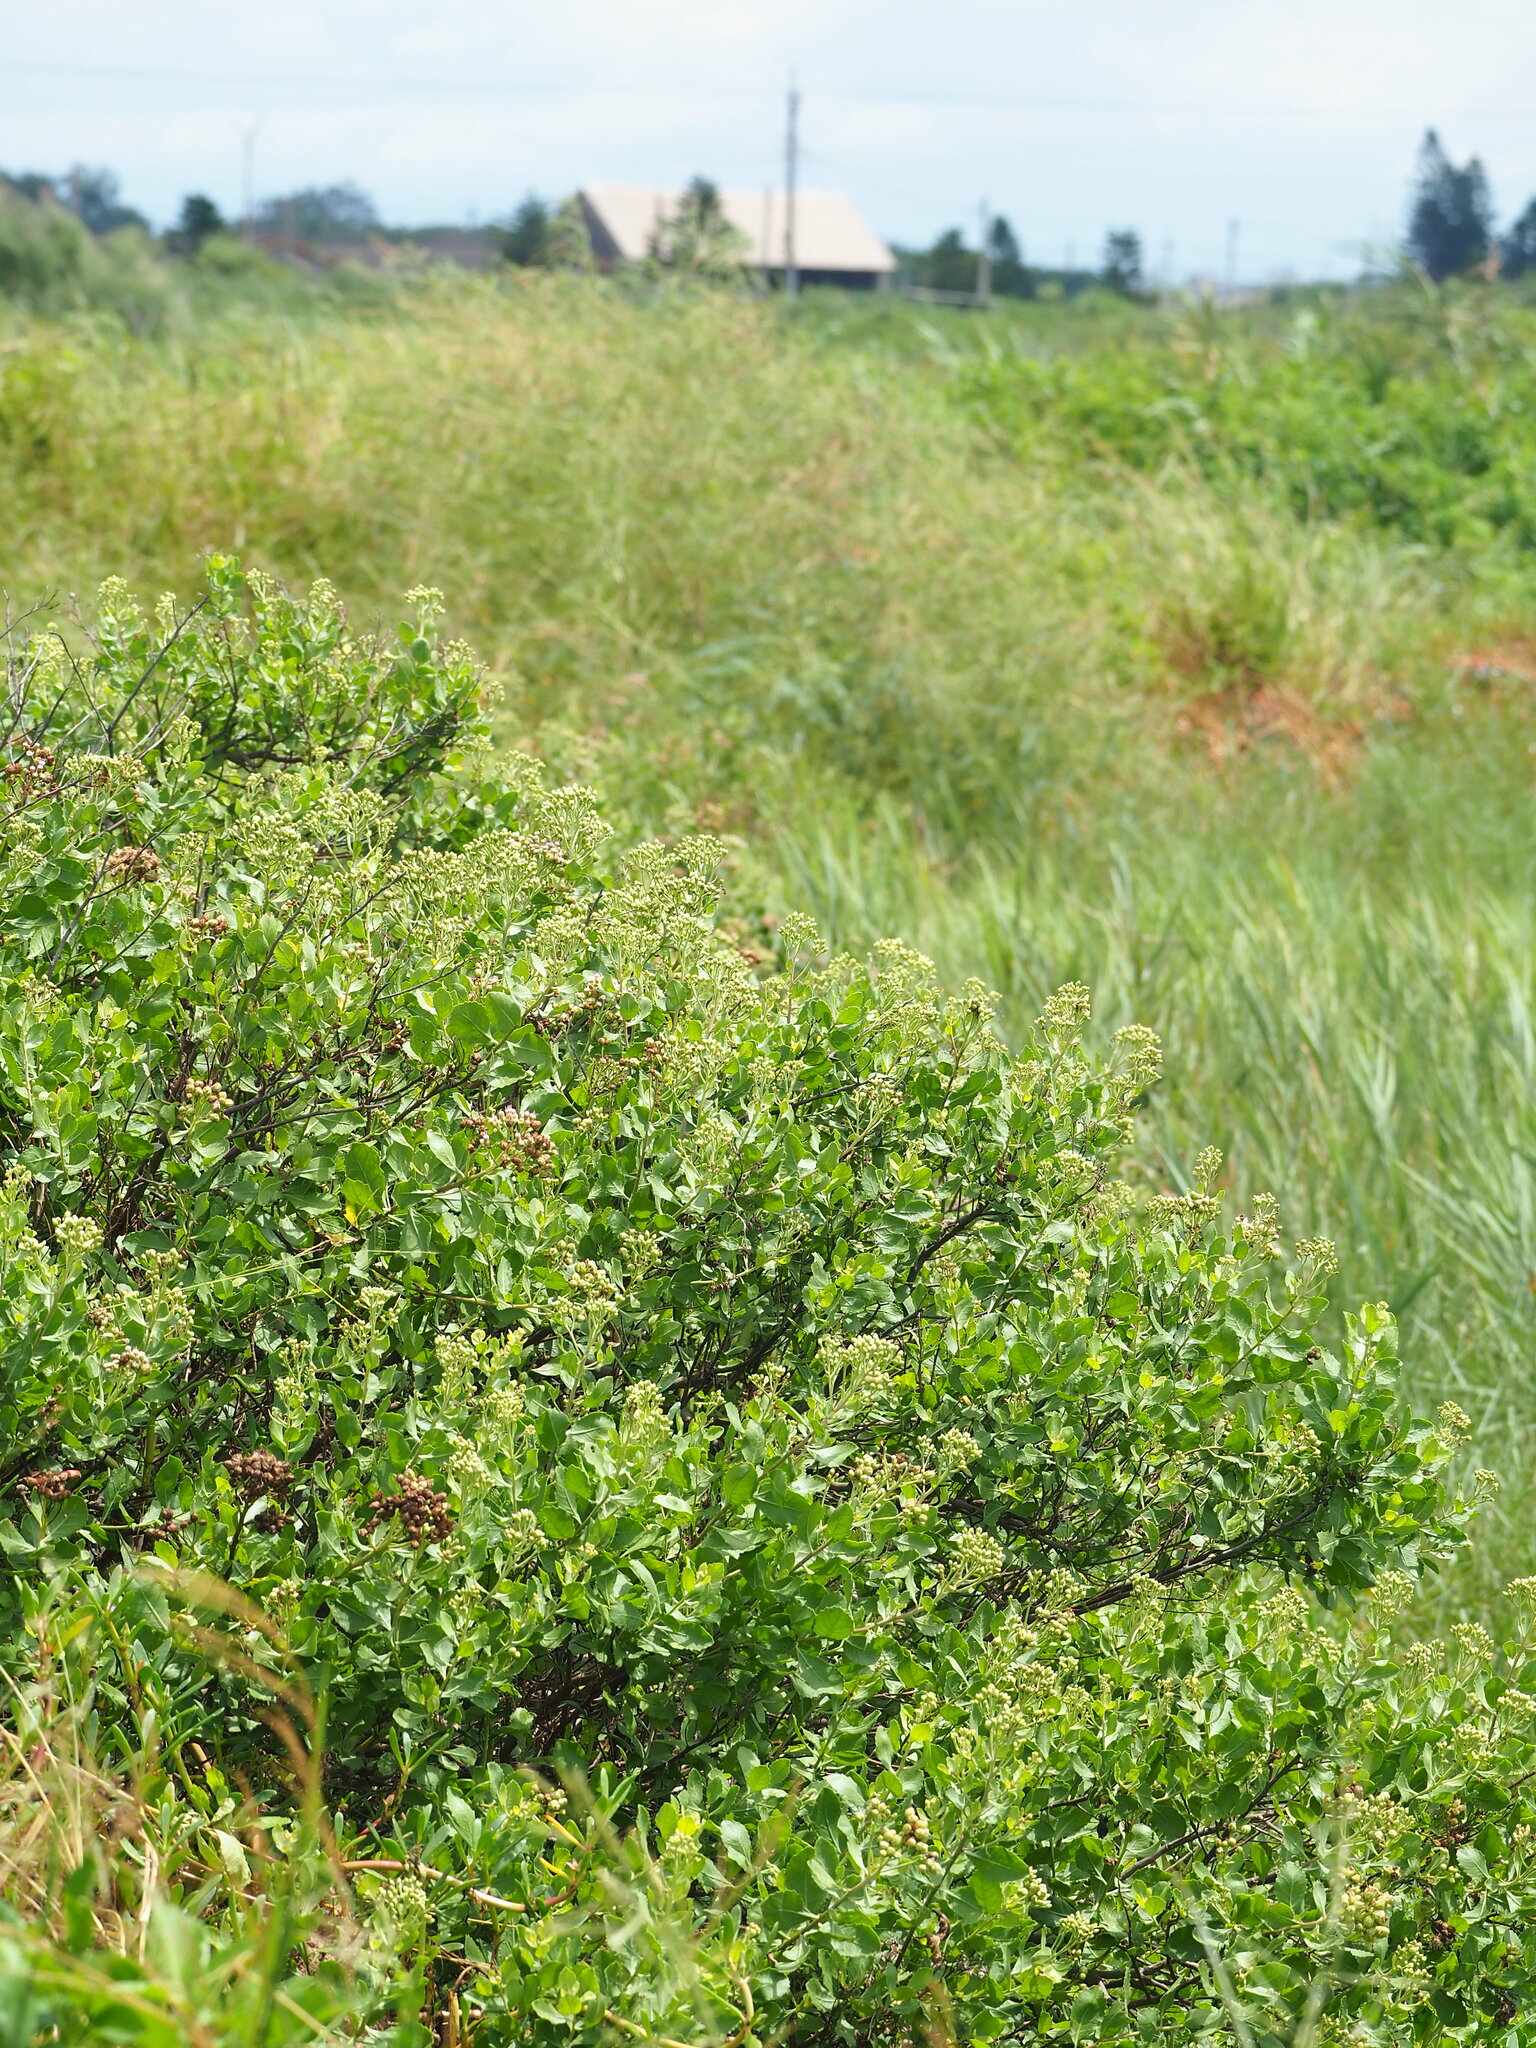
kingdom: Plantae
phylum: Tracheophyta
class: Magnoliopsida
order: Asterales
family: Asteraceae
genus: Pluchea
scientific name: Pluchea indica
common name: Indian fleabane
